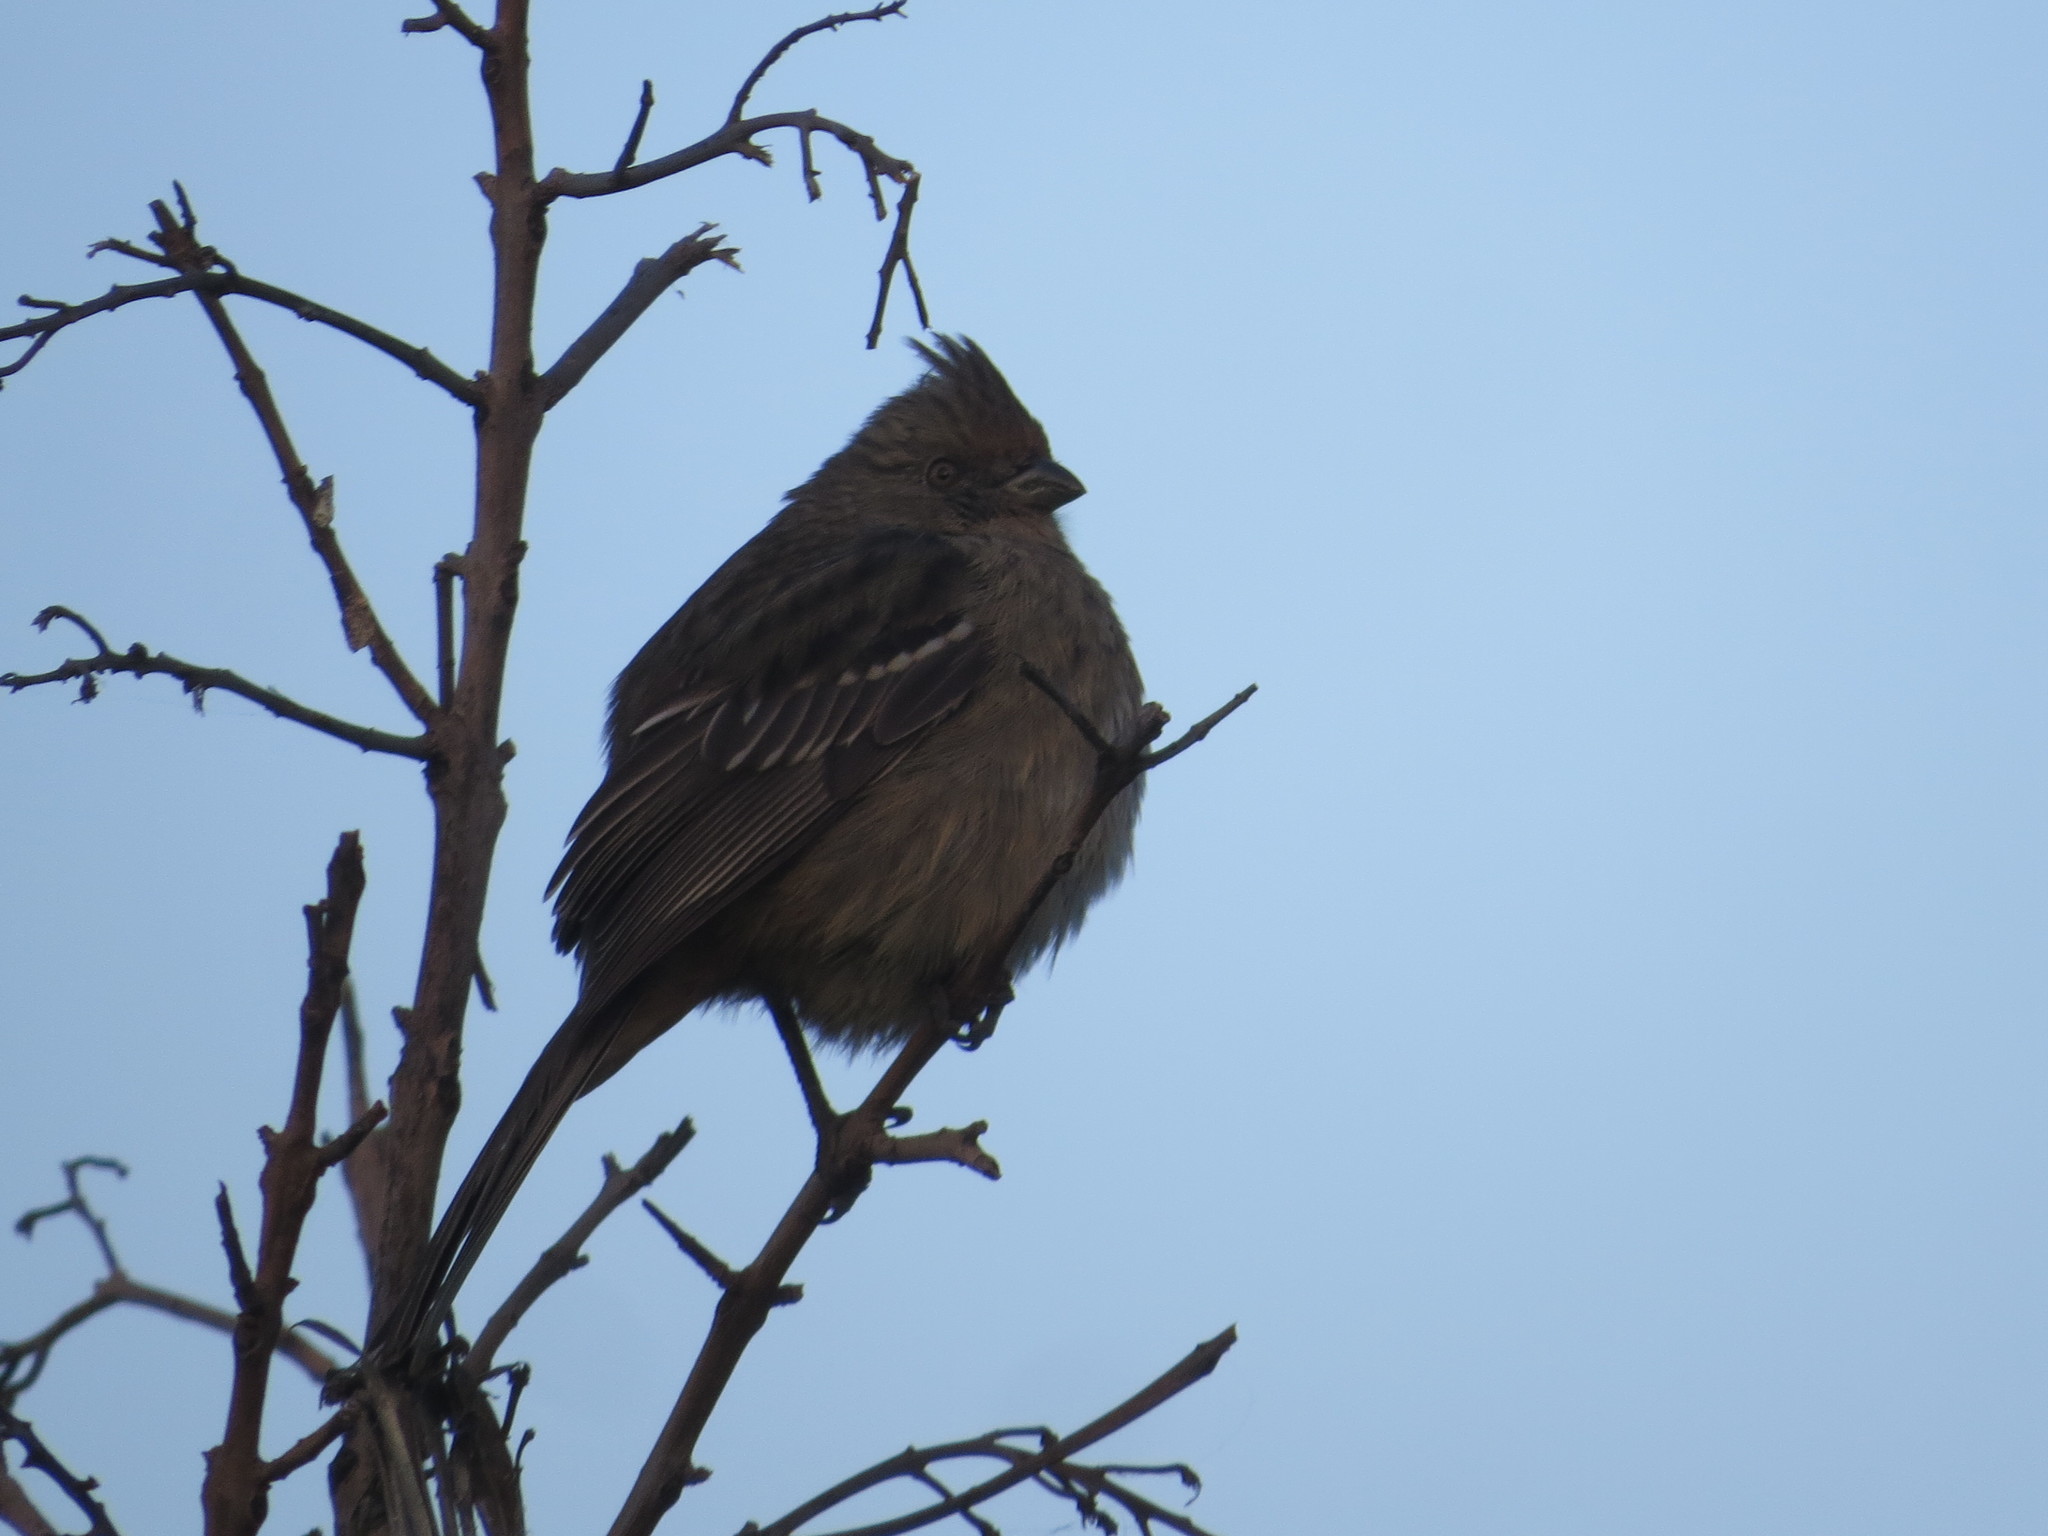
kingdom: Animalia
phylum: Chordata
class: Aves
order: Passeriformes
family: Cotingidae
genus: Phytotoma
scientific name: Phytotoma rutila
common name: White-tipped plantcutter
